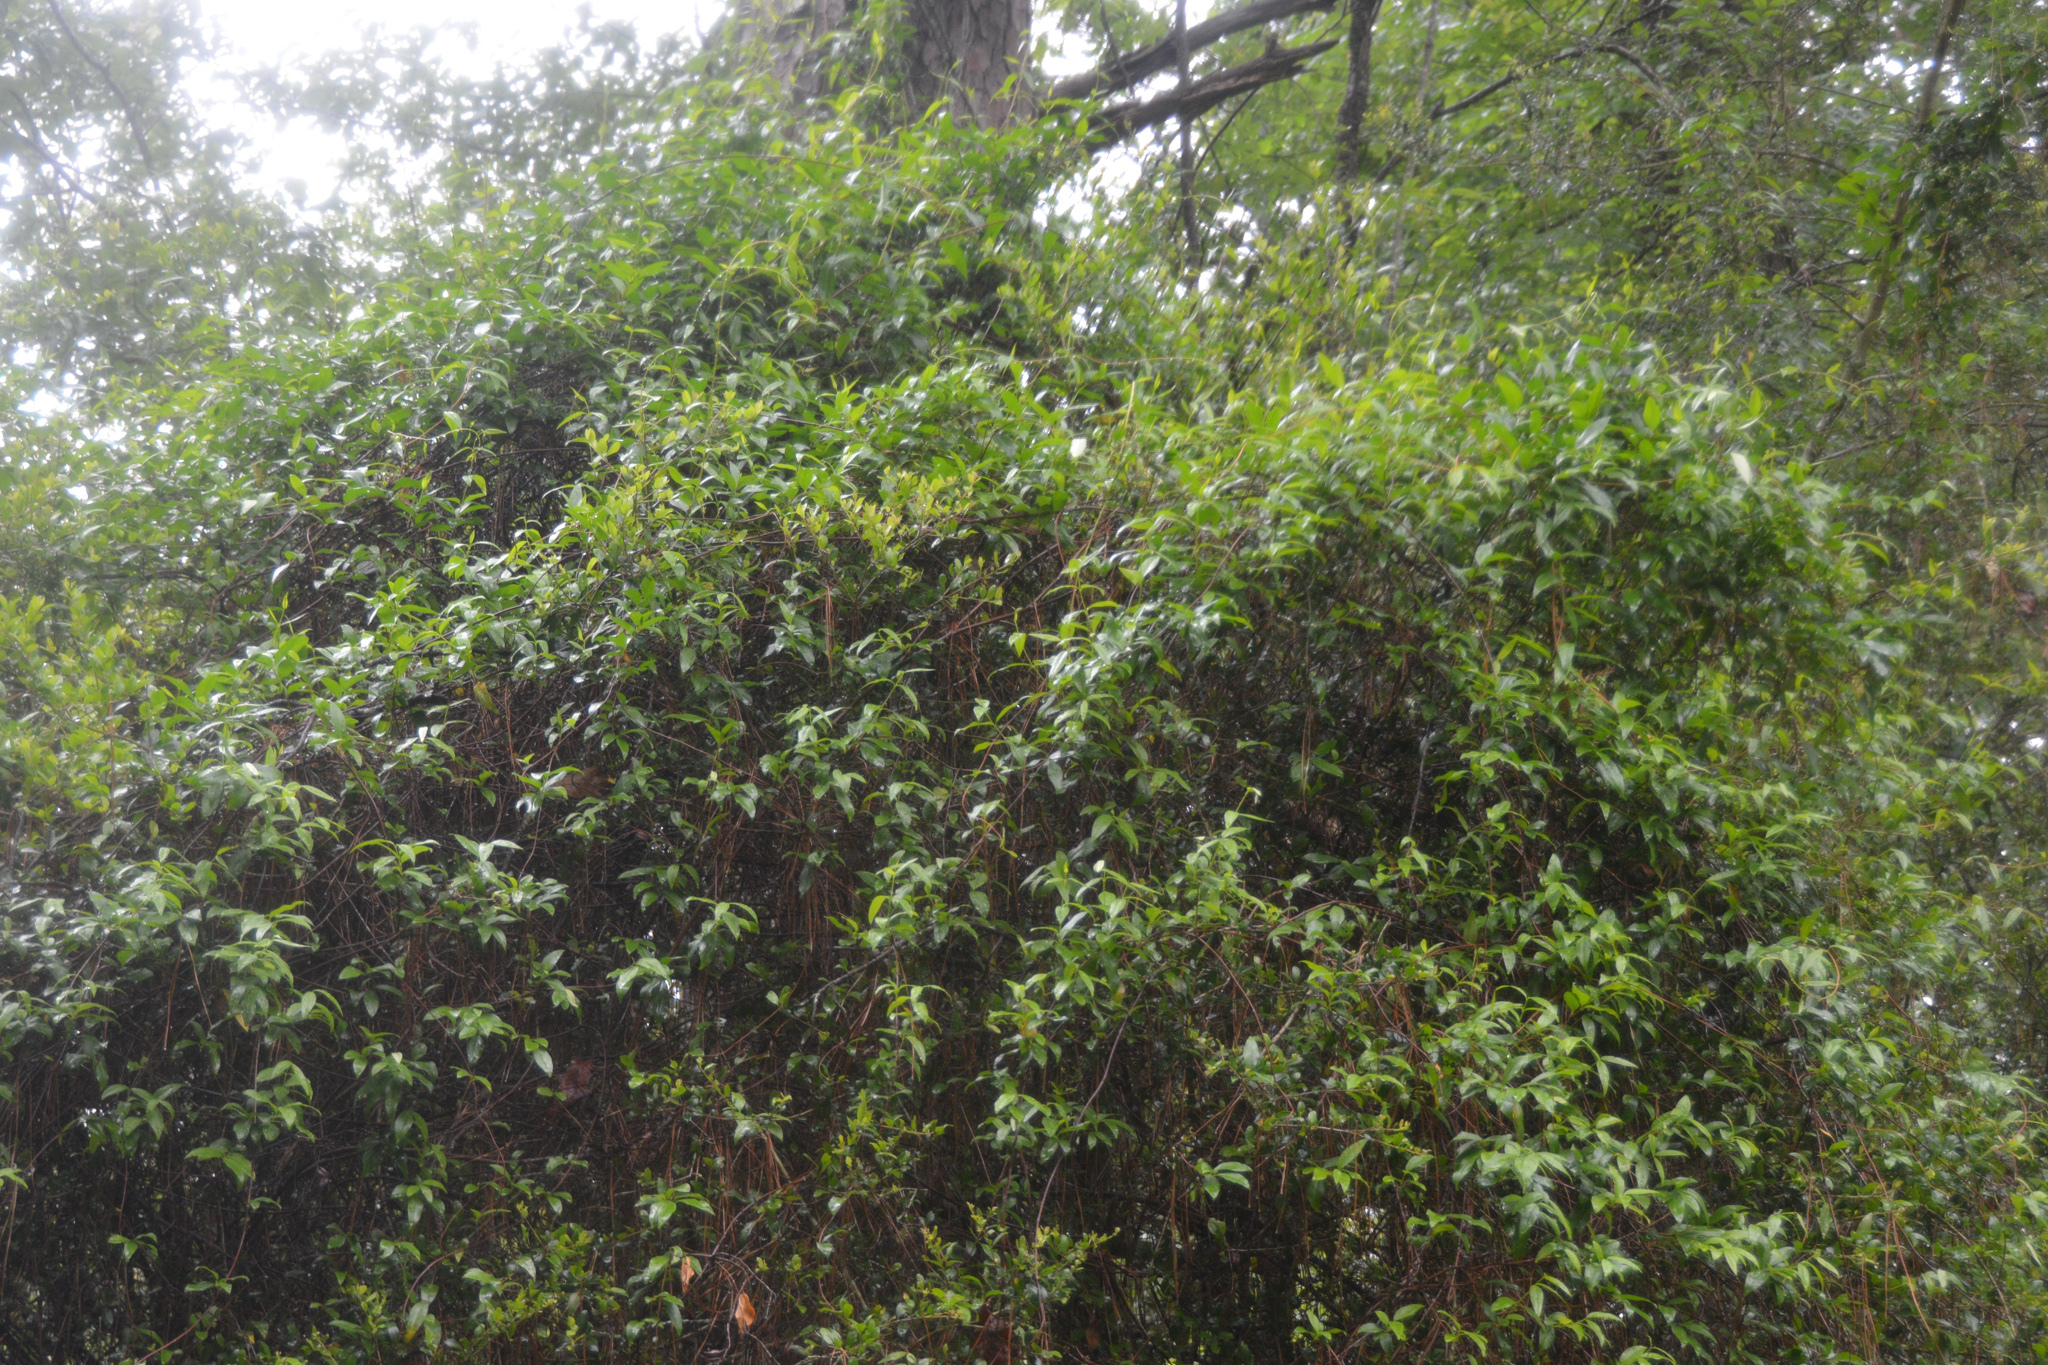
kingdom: Plantae
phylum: Tracheophyta
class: Magnoliopsida
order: Gentianales
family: Gelsemiaceae
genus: Gelsemium
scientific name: Gelsemium sempervirens
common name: Carolina-jasmine
